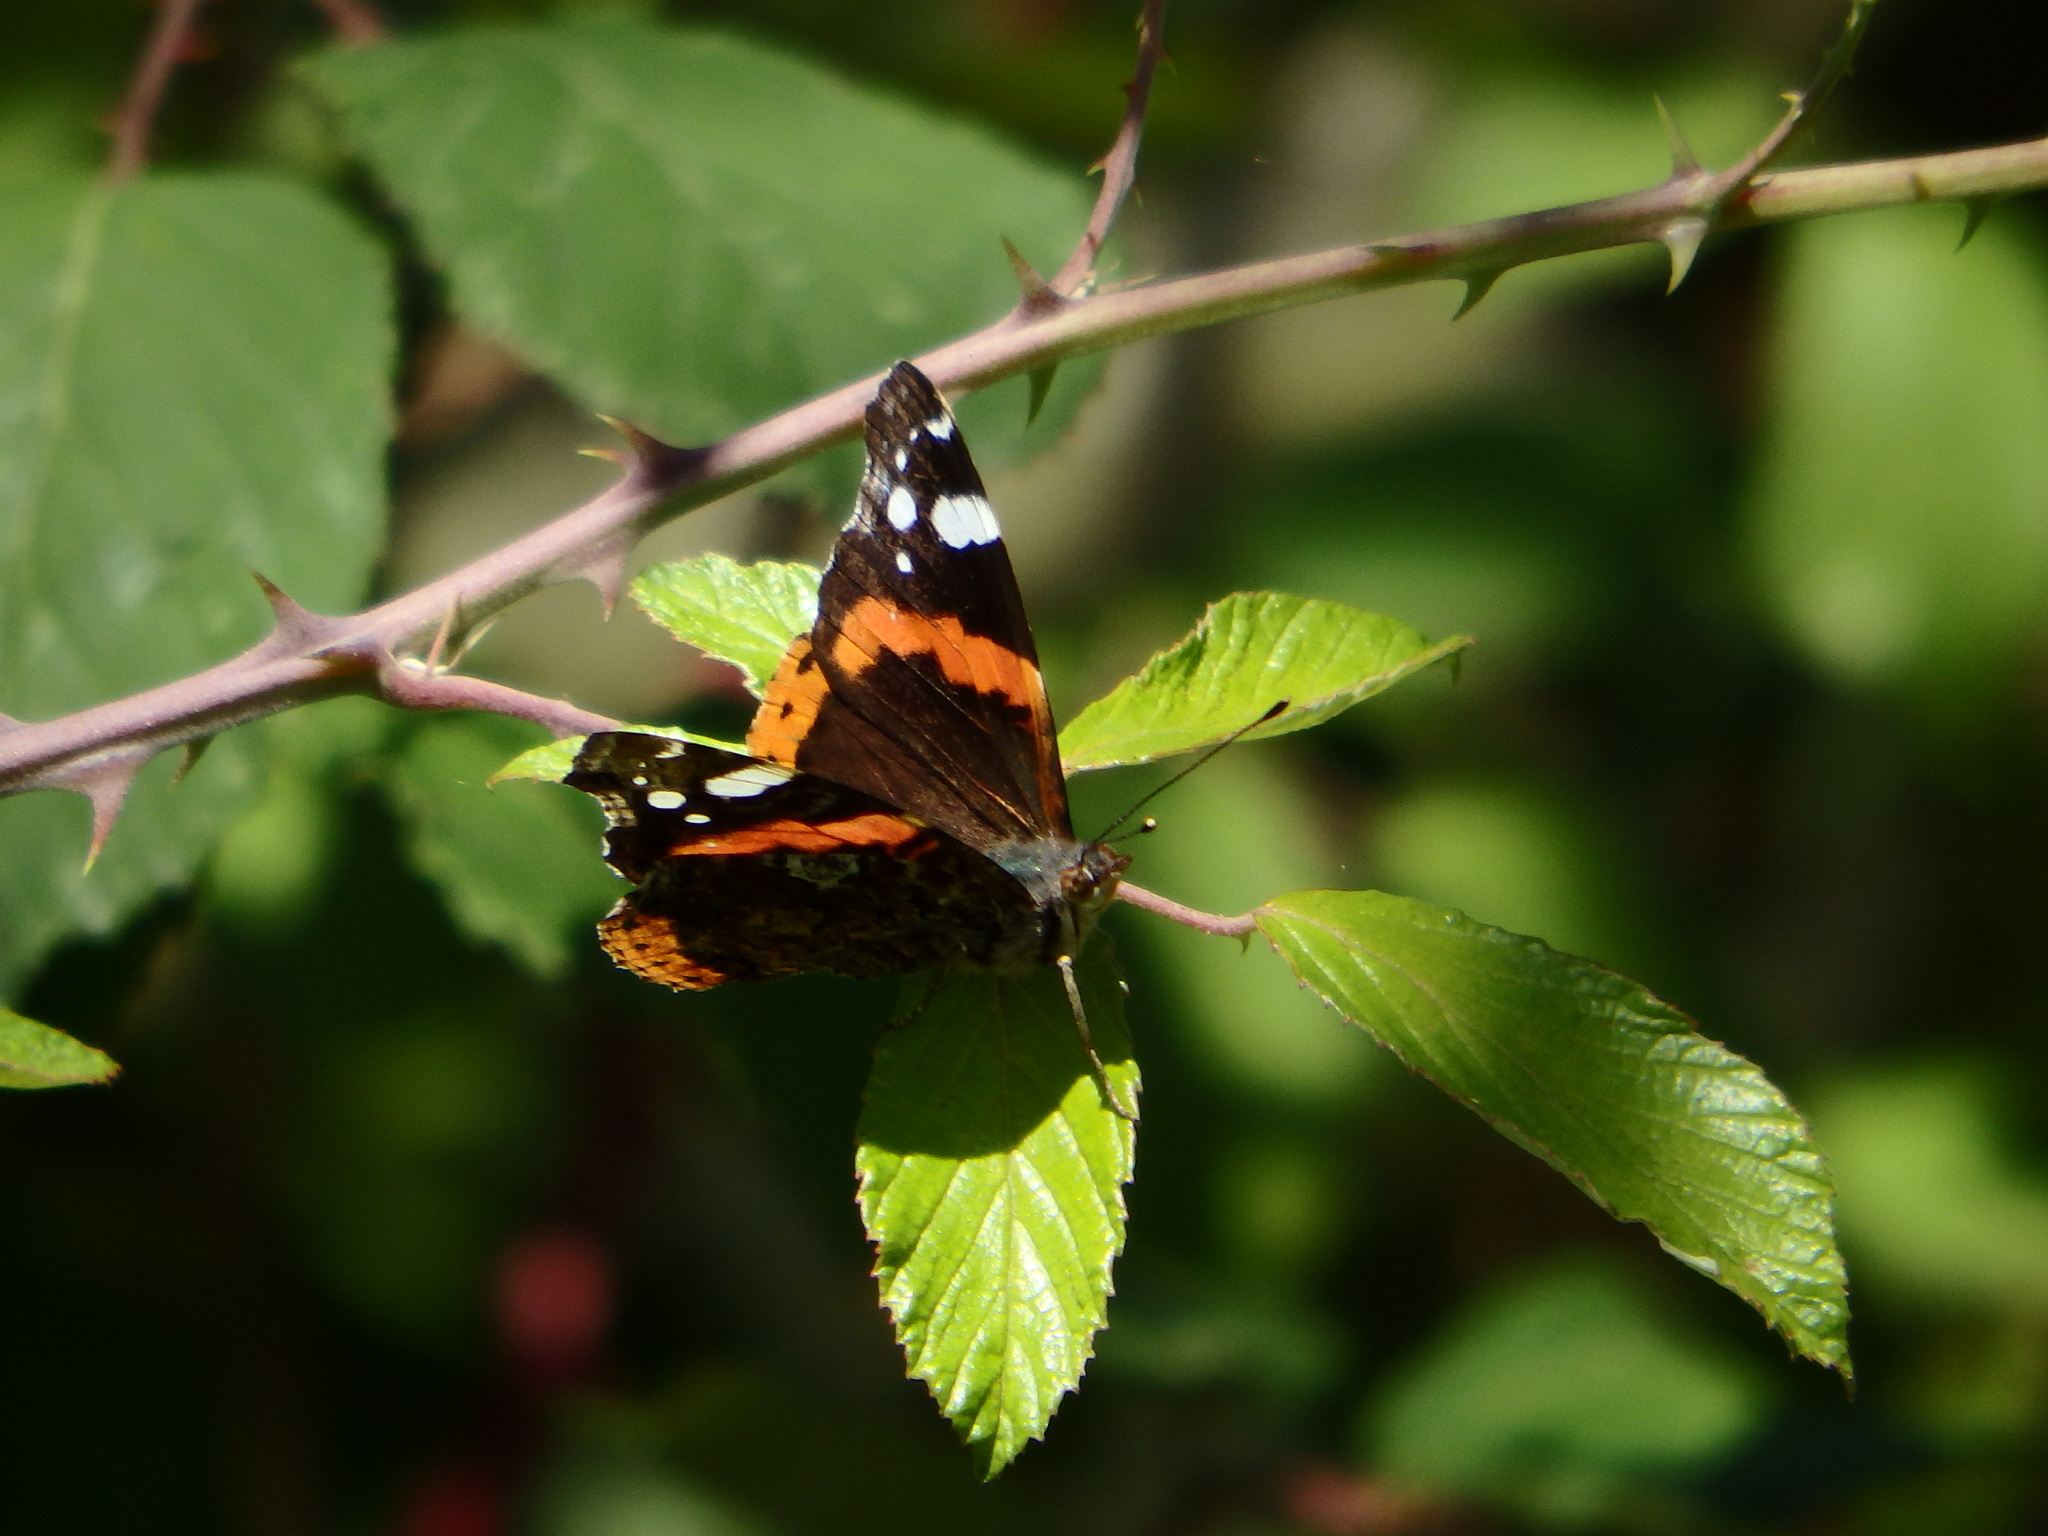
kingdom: Animalia
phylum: Arthropoda
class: Insecta
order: Lepidoptera
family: Nymphalidae
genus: Vanessa
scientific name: Vanessa atalanta
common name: Red admiral
